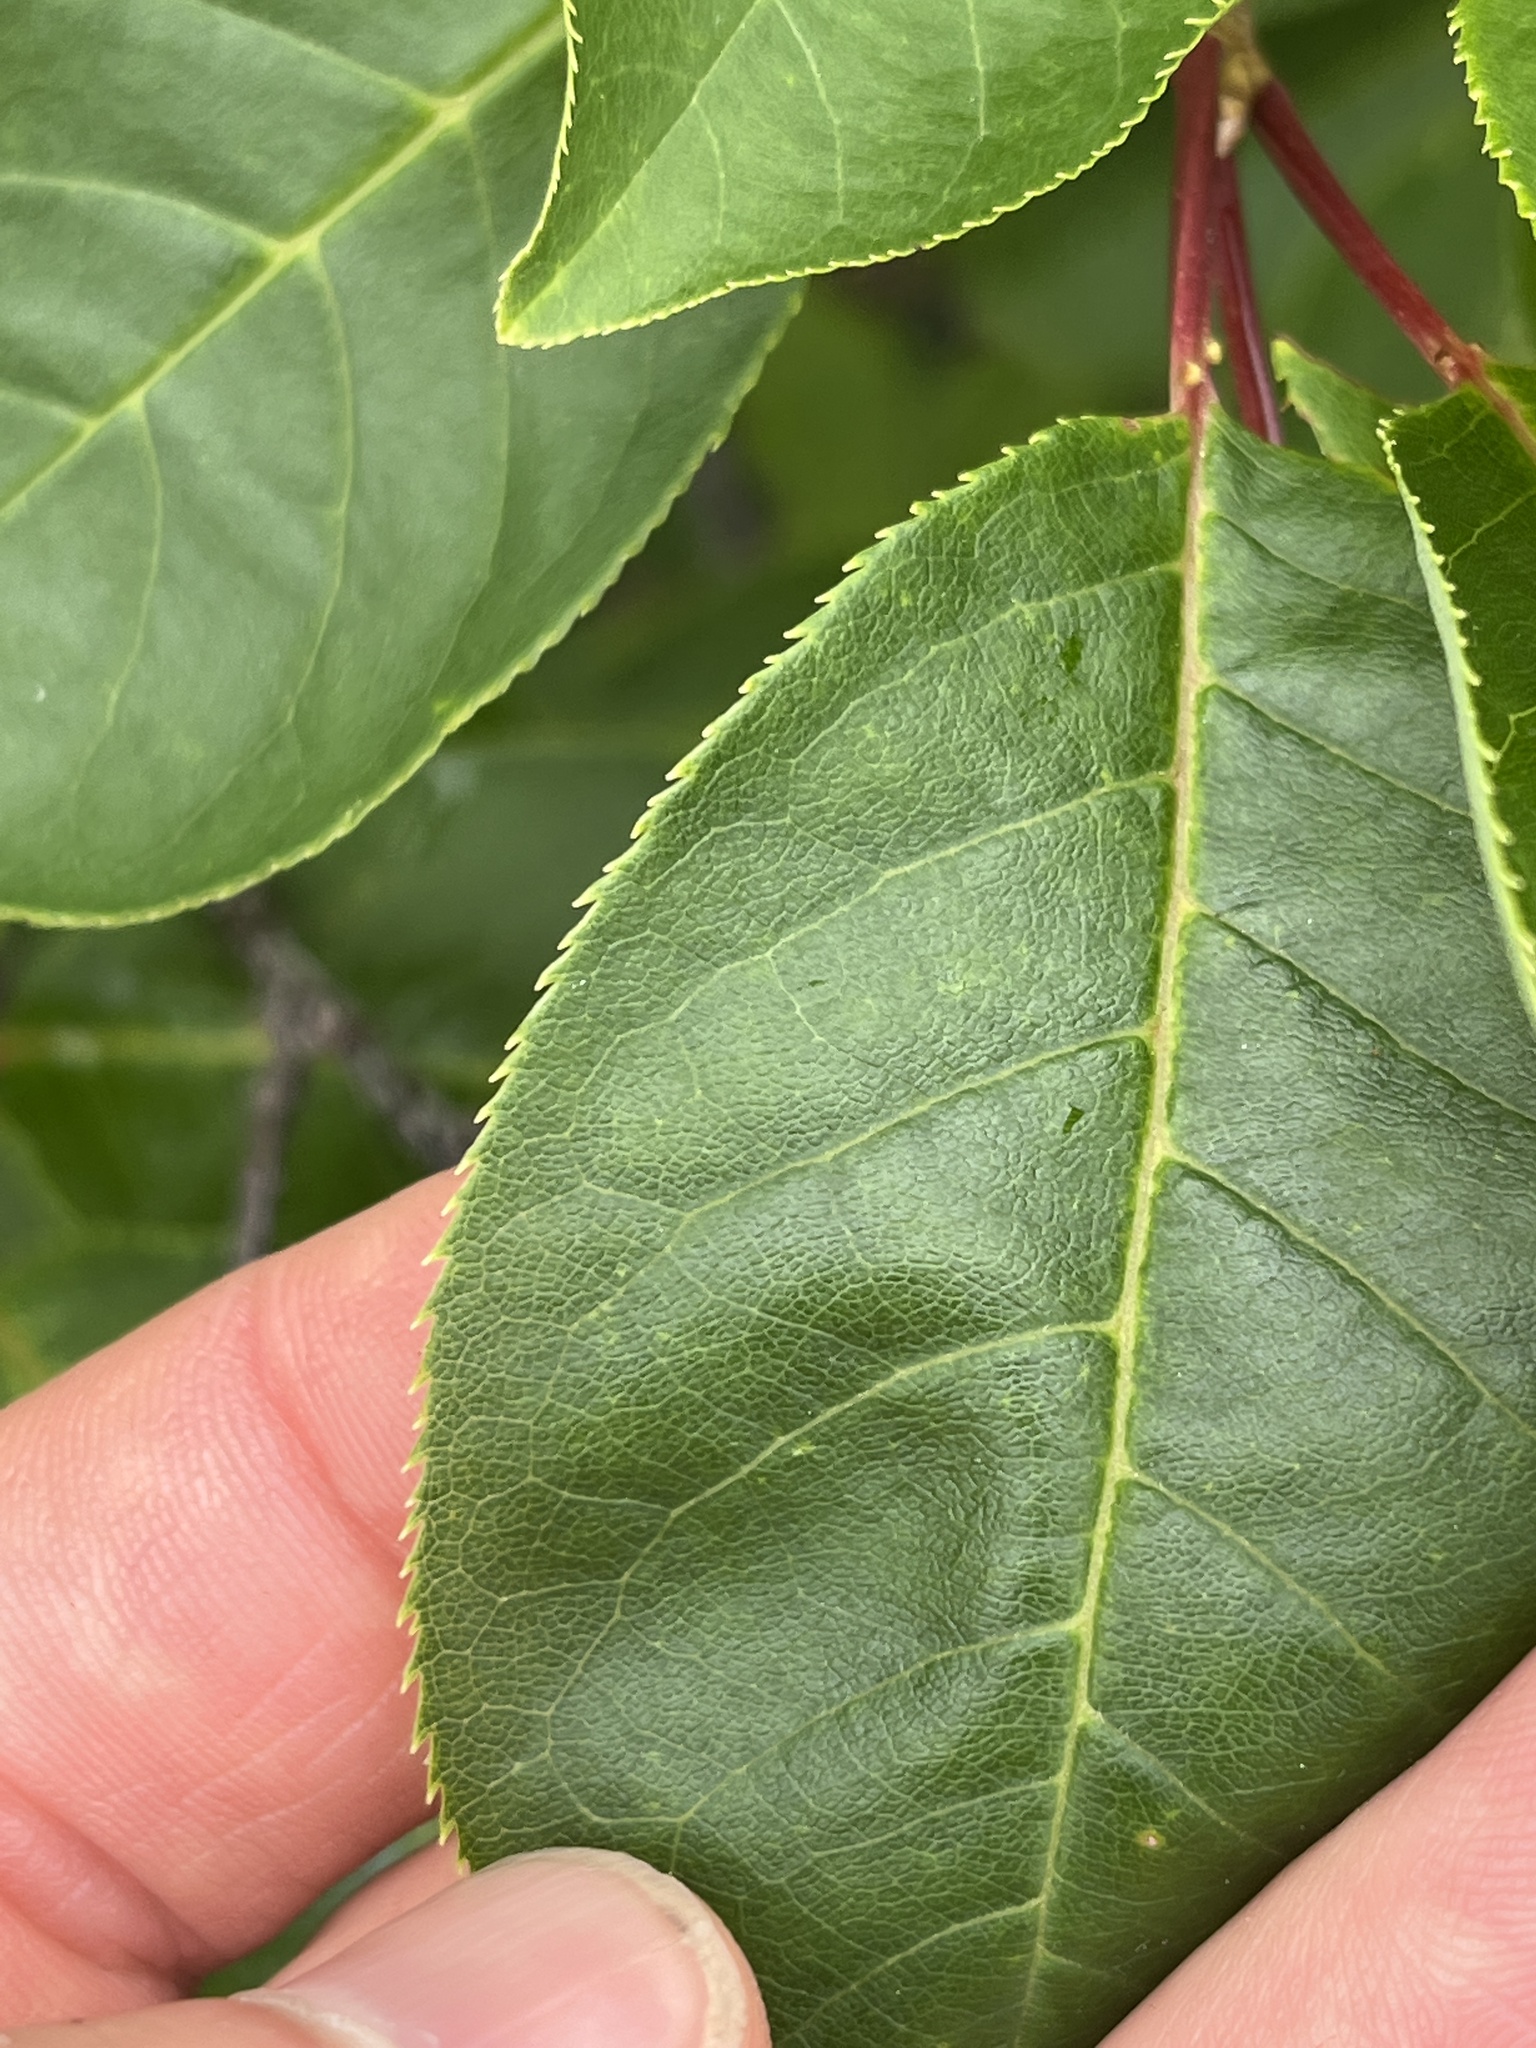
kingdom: Plantae
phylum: Tracheophyta
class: Magnoliopsida
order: Rosales
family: Rosaceae
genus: Prunus
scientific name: Prunus virginiana
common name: Chokecherry
